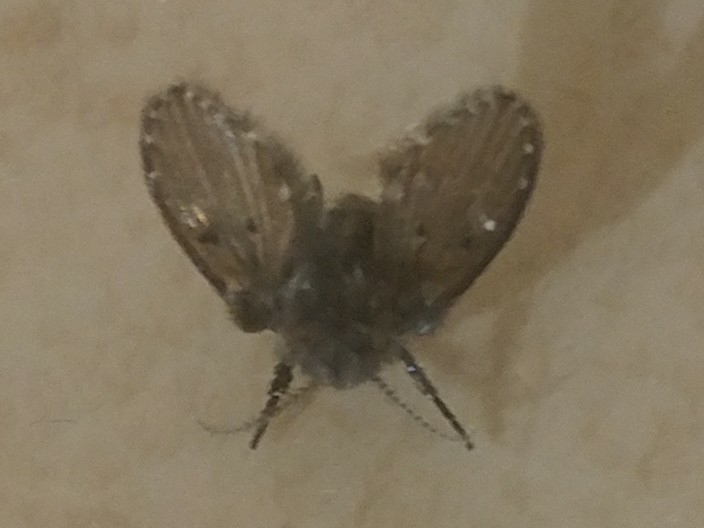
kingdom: Animalia
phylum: Arthropoda
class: Insecta
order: Diptera
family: Psychodidae
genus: Clogmia
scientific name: Clogmia albipunctatus
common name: White-spotted moth fly
